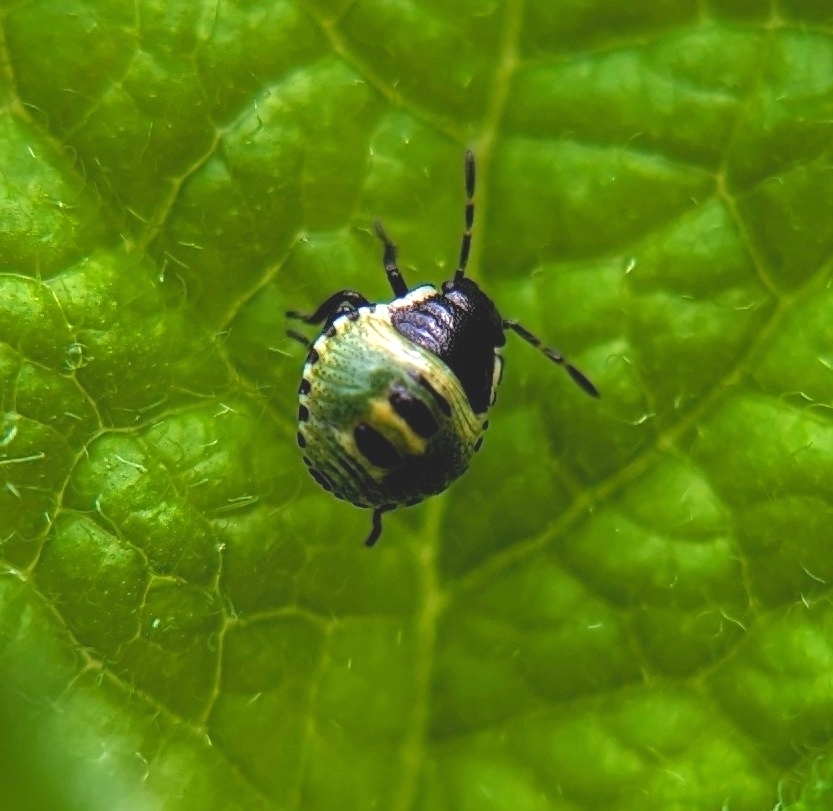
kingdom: Animalia
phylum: Arthropoda
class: Insecta
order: Hemiptera
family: Pentatomidae
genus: Palomena
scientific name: Palomena prasina
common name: Green shieldbug
